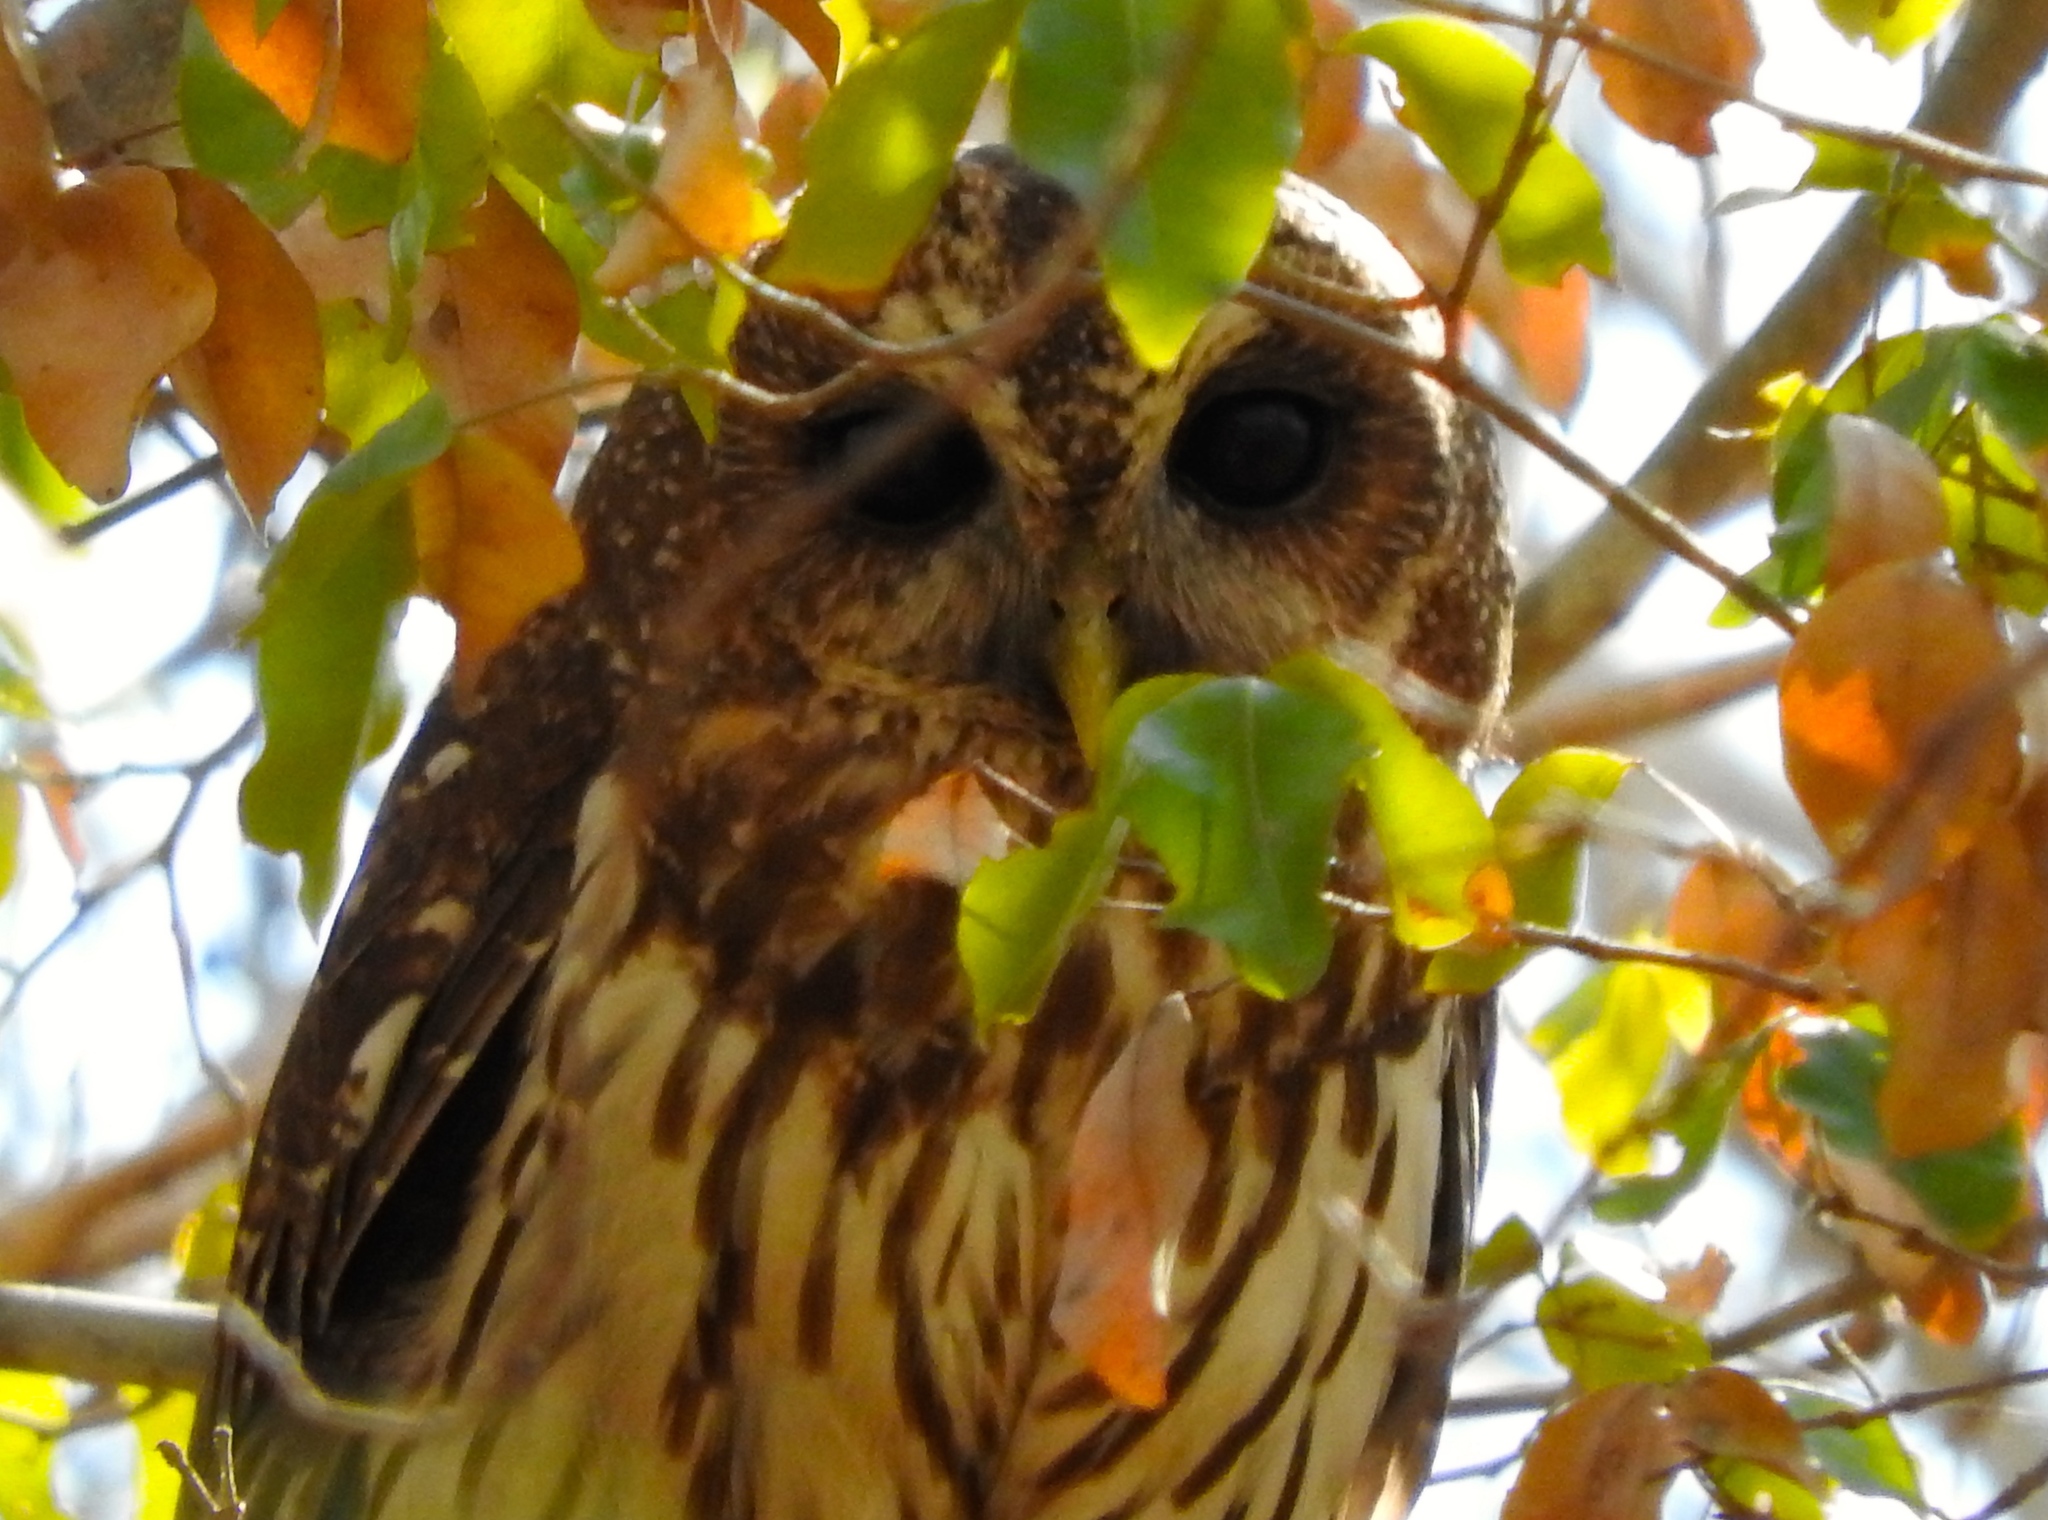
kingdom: Animalia
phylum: Chordata
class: Aves
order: Strigiformes
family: Strigidae
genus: Strix
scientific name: Strix virgata
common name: Mottled owl
